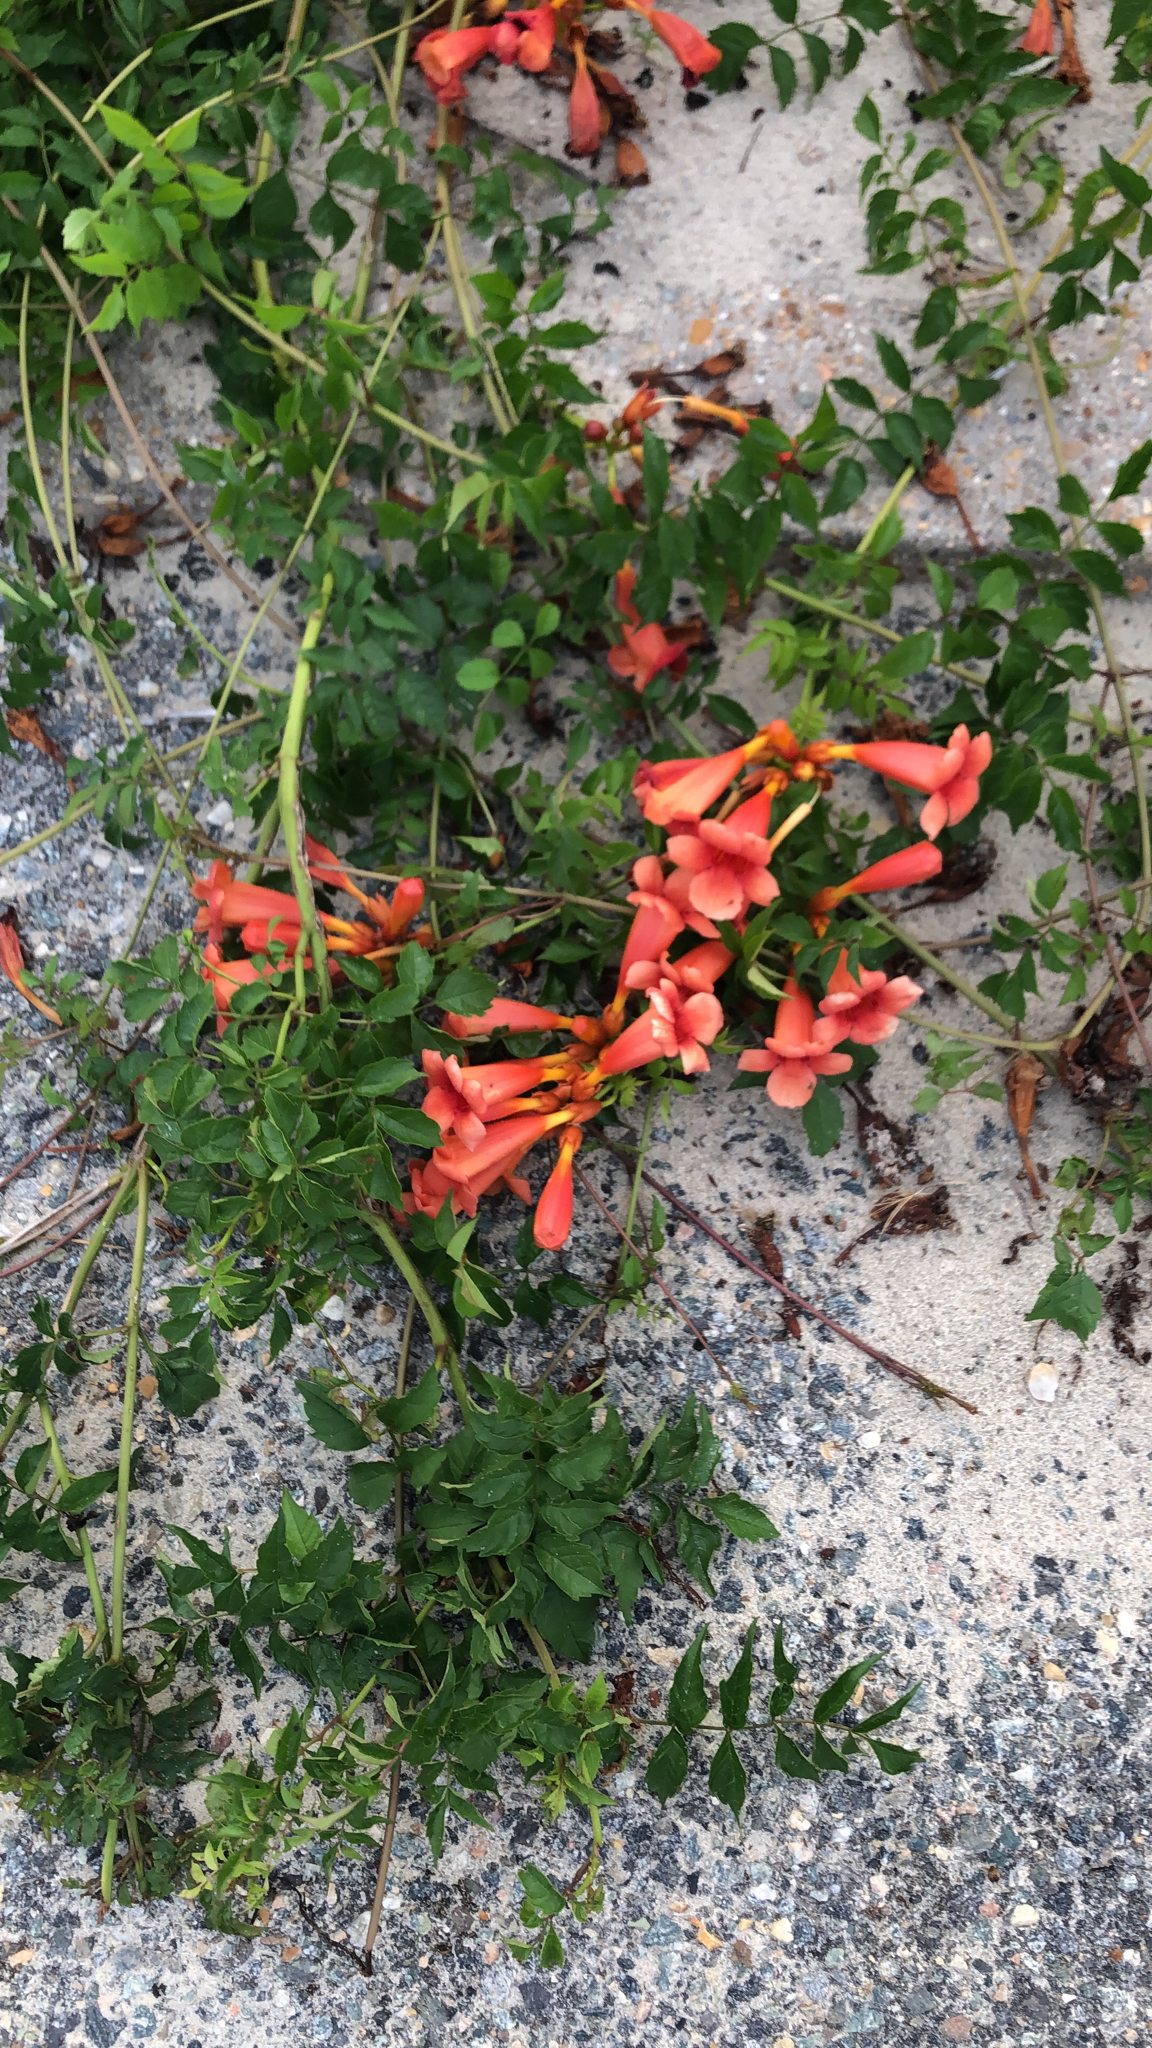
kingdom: Plantae
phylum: Tracheophyta
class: Magnoliopsida
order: Lamiales
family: Bignoniaceae
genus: Campsis
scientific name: Campsis radicans
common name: Trumpet-creeper
